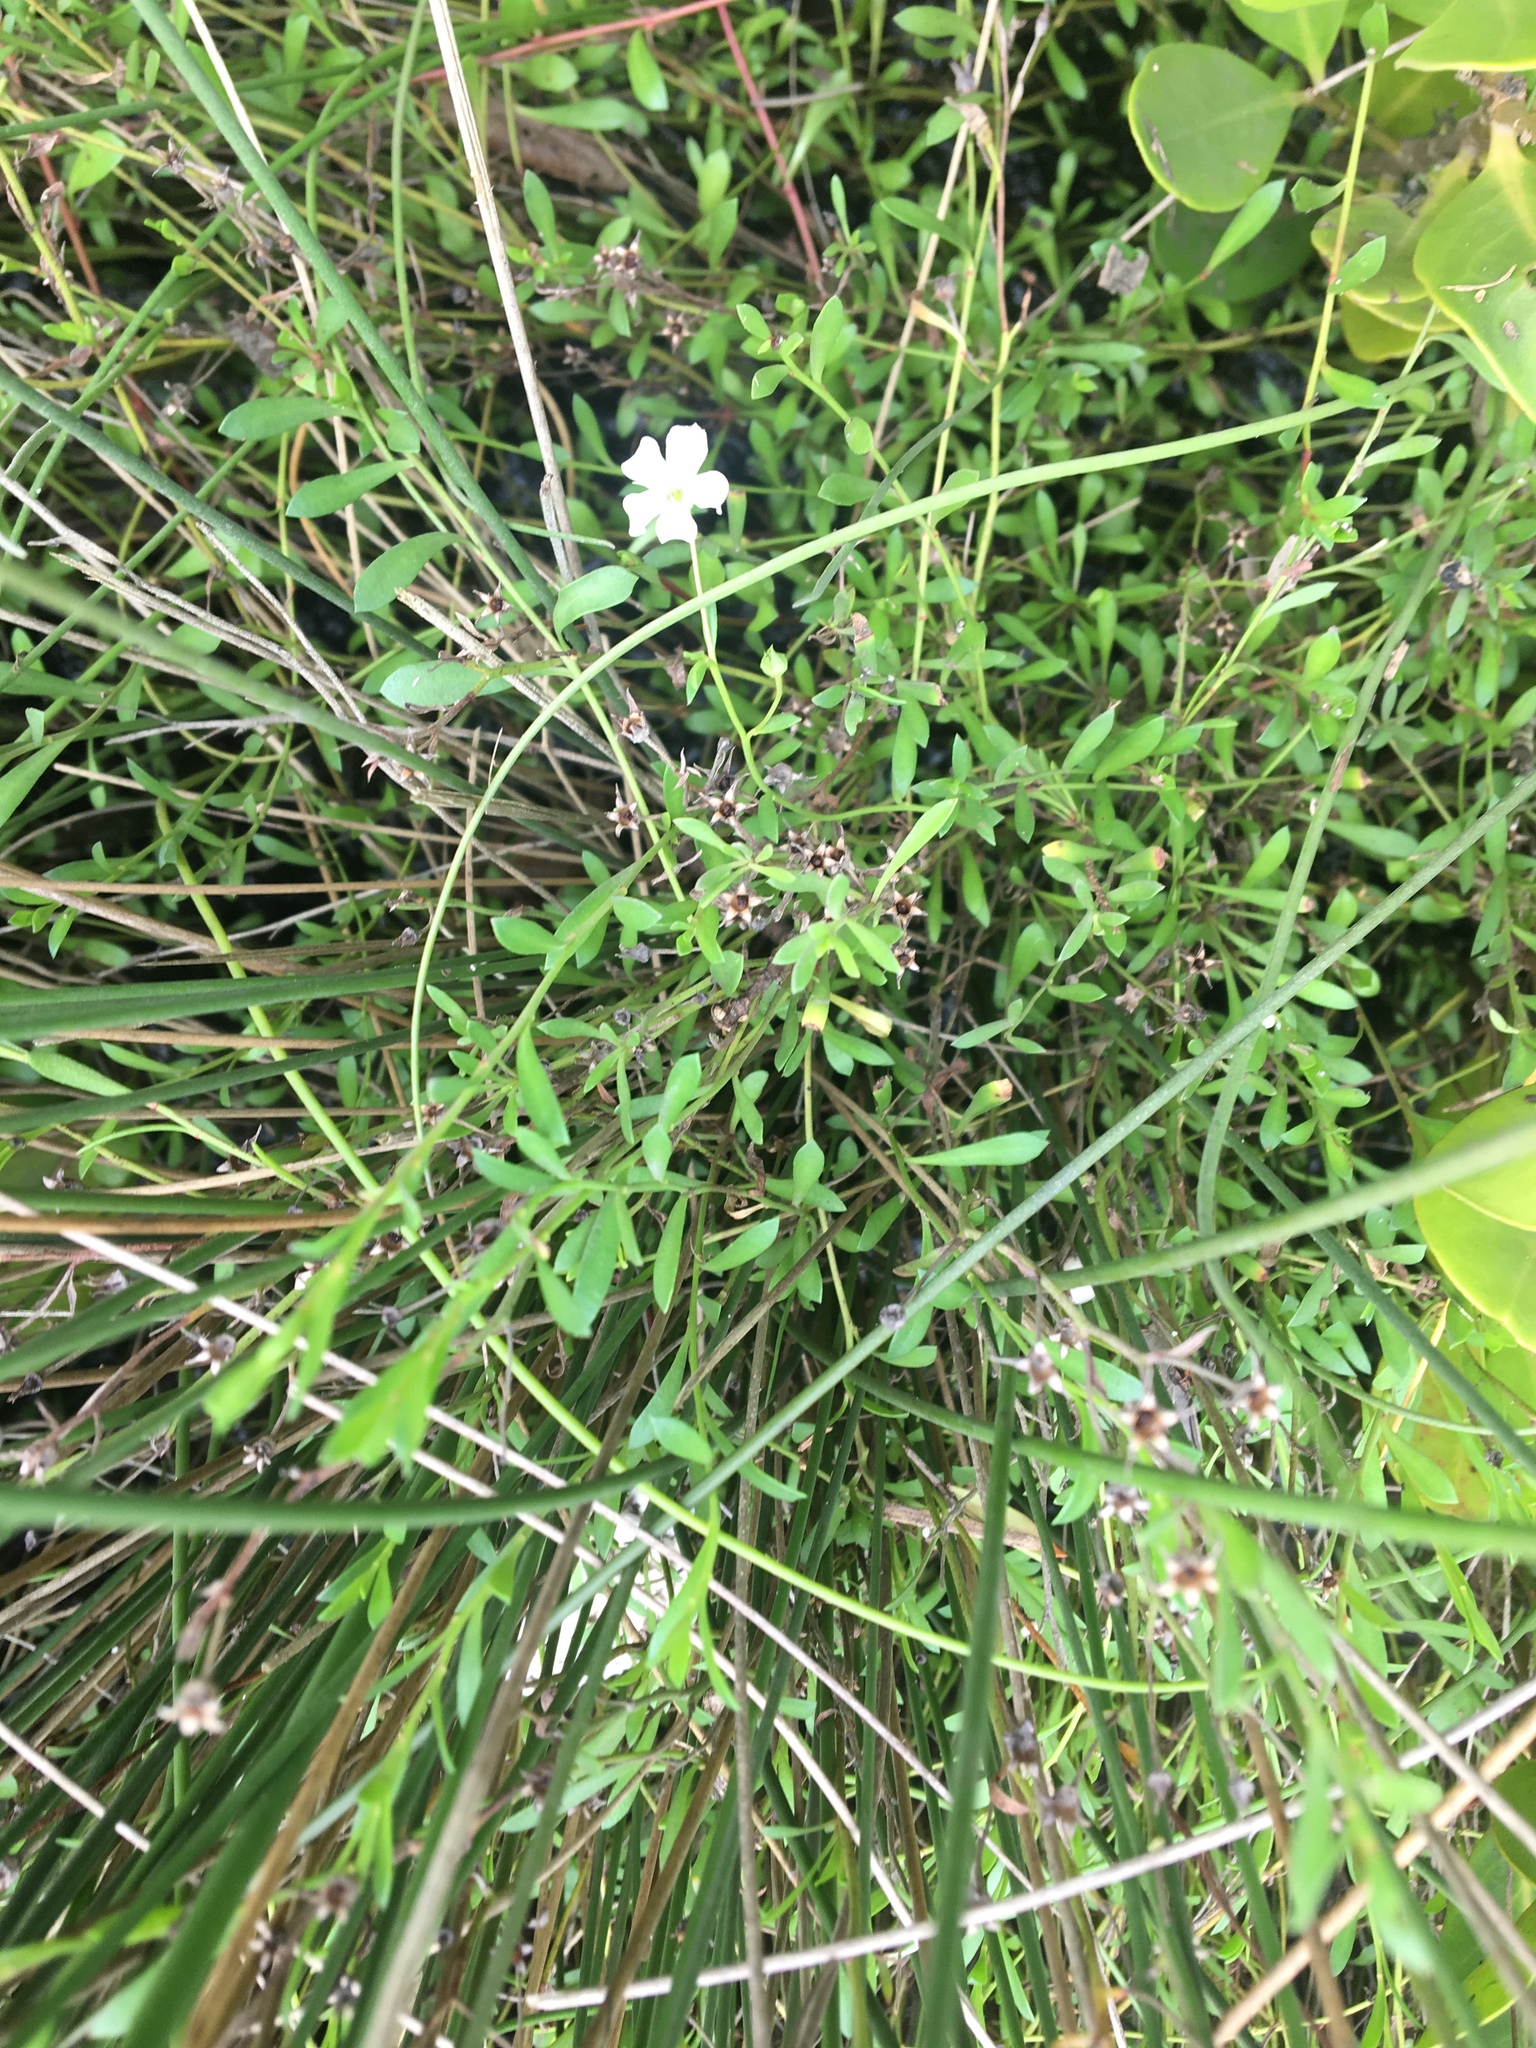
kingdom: Plantae
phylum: Tracheophyta
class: Magnoliopsida
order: Lamiales
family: Plantaginaceae
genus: Bacopa
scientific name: Bacopa monnieri
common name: Indian-pennywort
